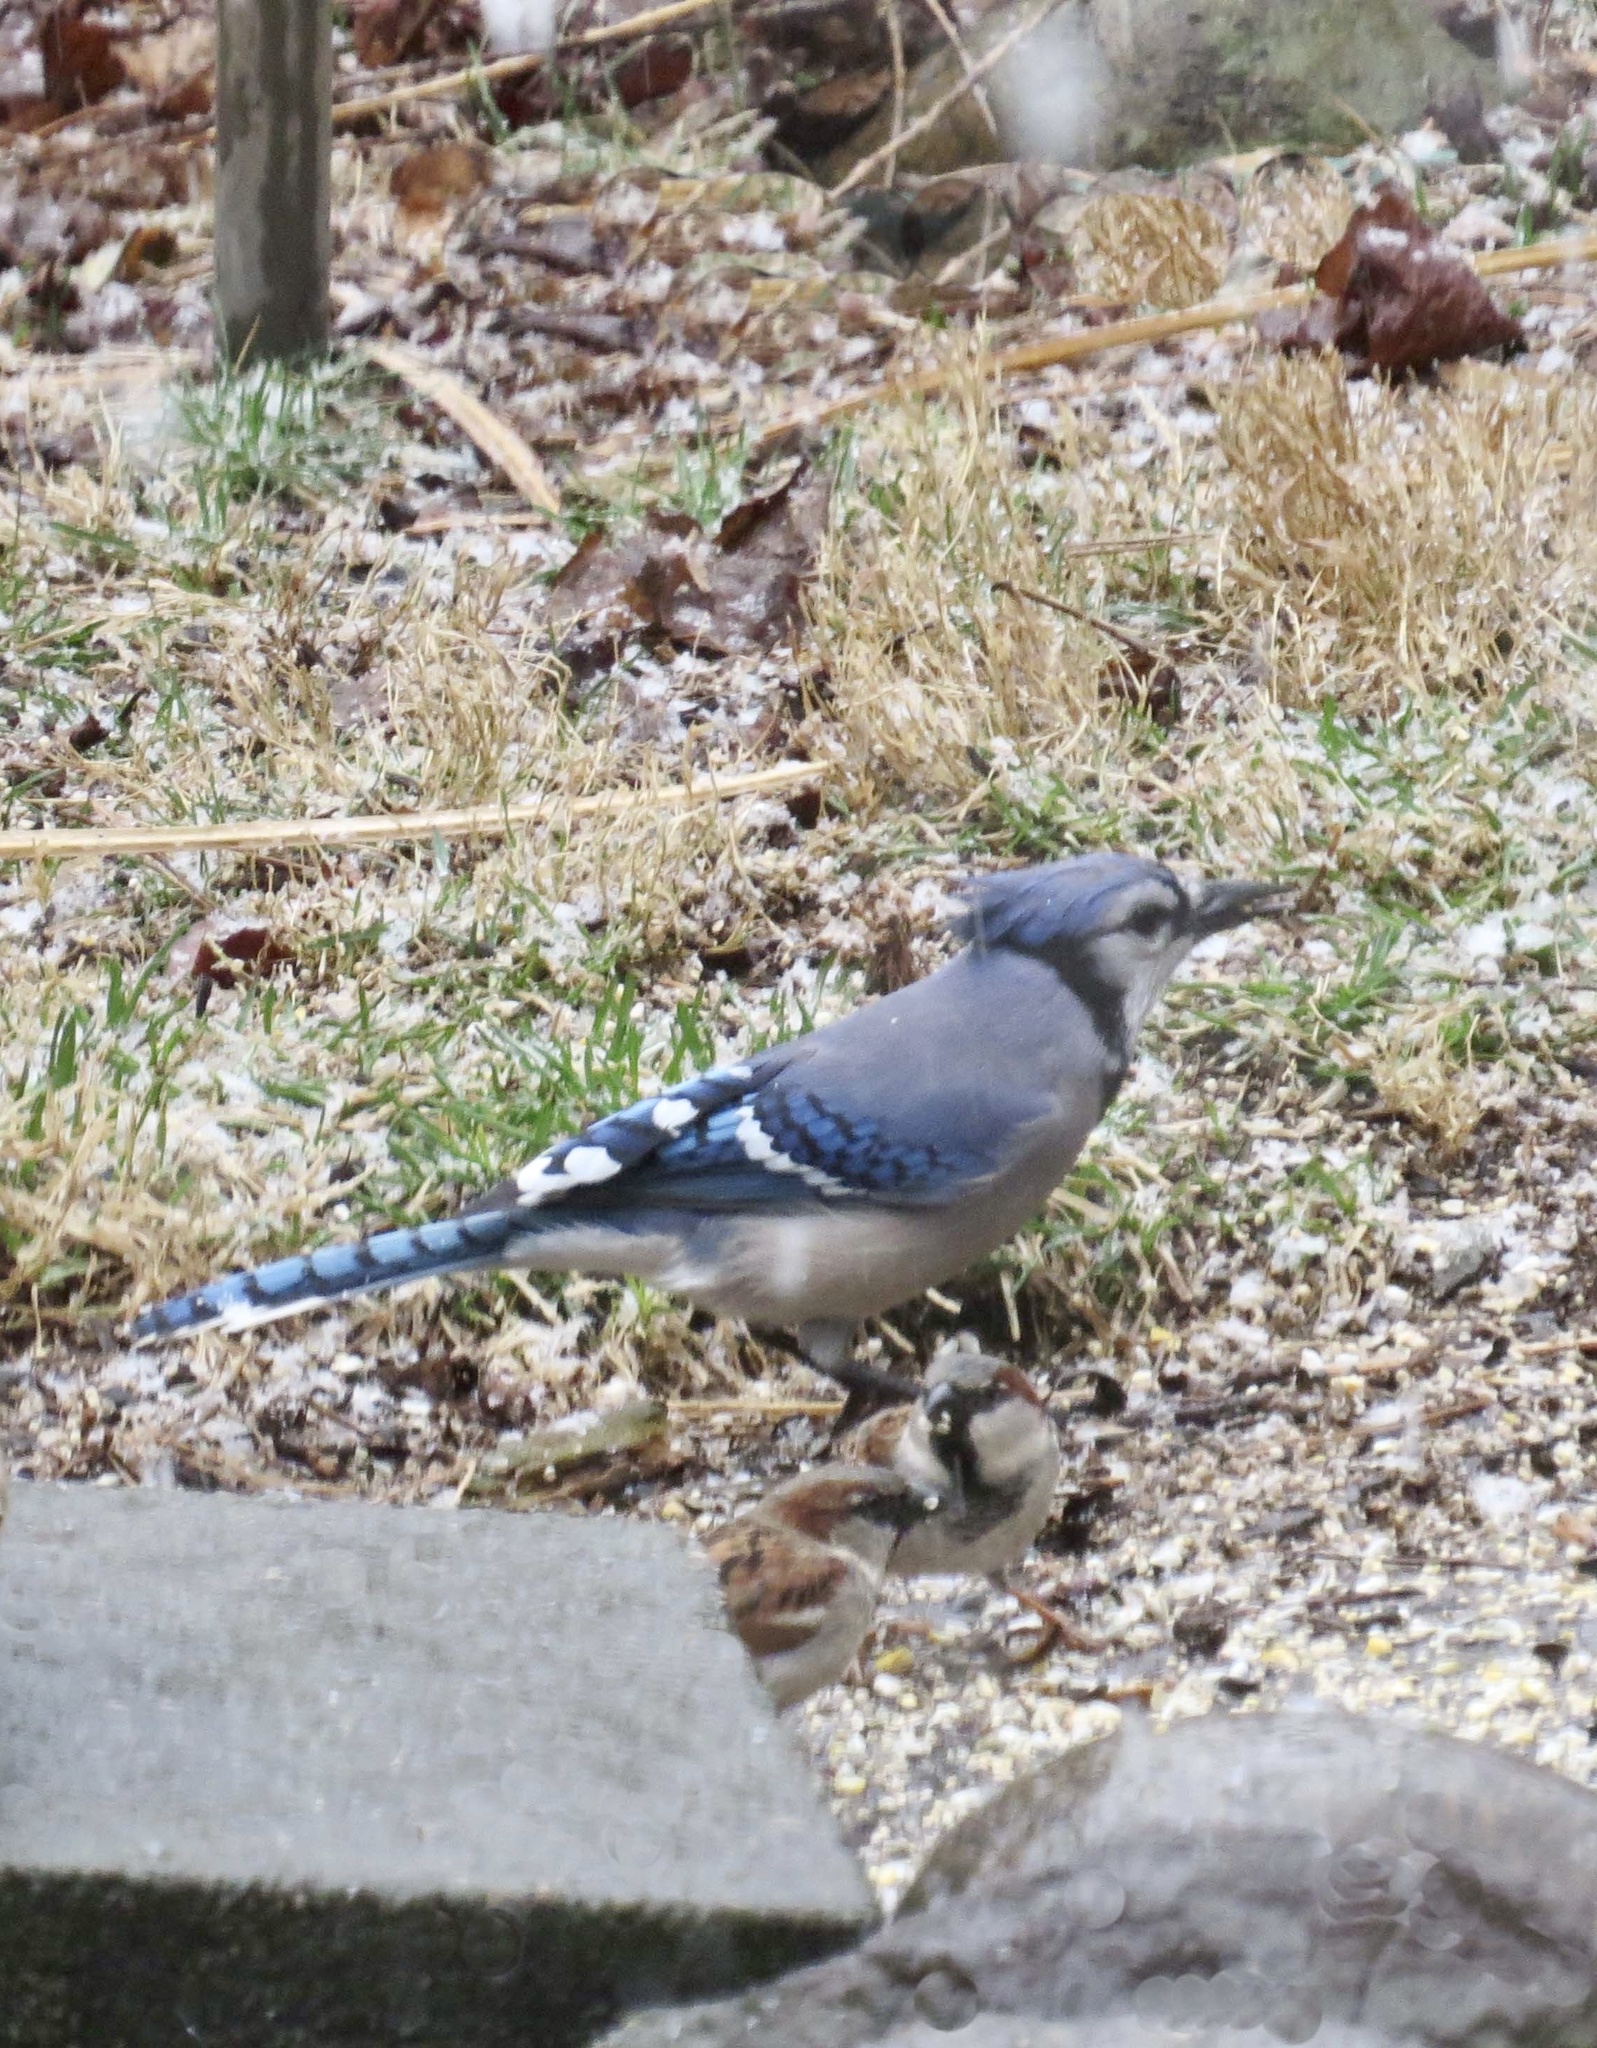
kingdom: Animalia
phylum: Chordata
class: Aves
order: Passeriformes
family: Corvidae
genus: Cyanocitta
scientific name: Cyanocitta cristata
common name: Blue jay
